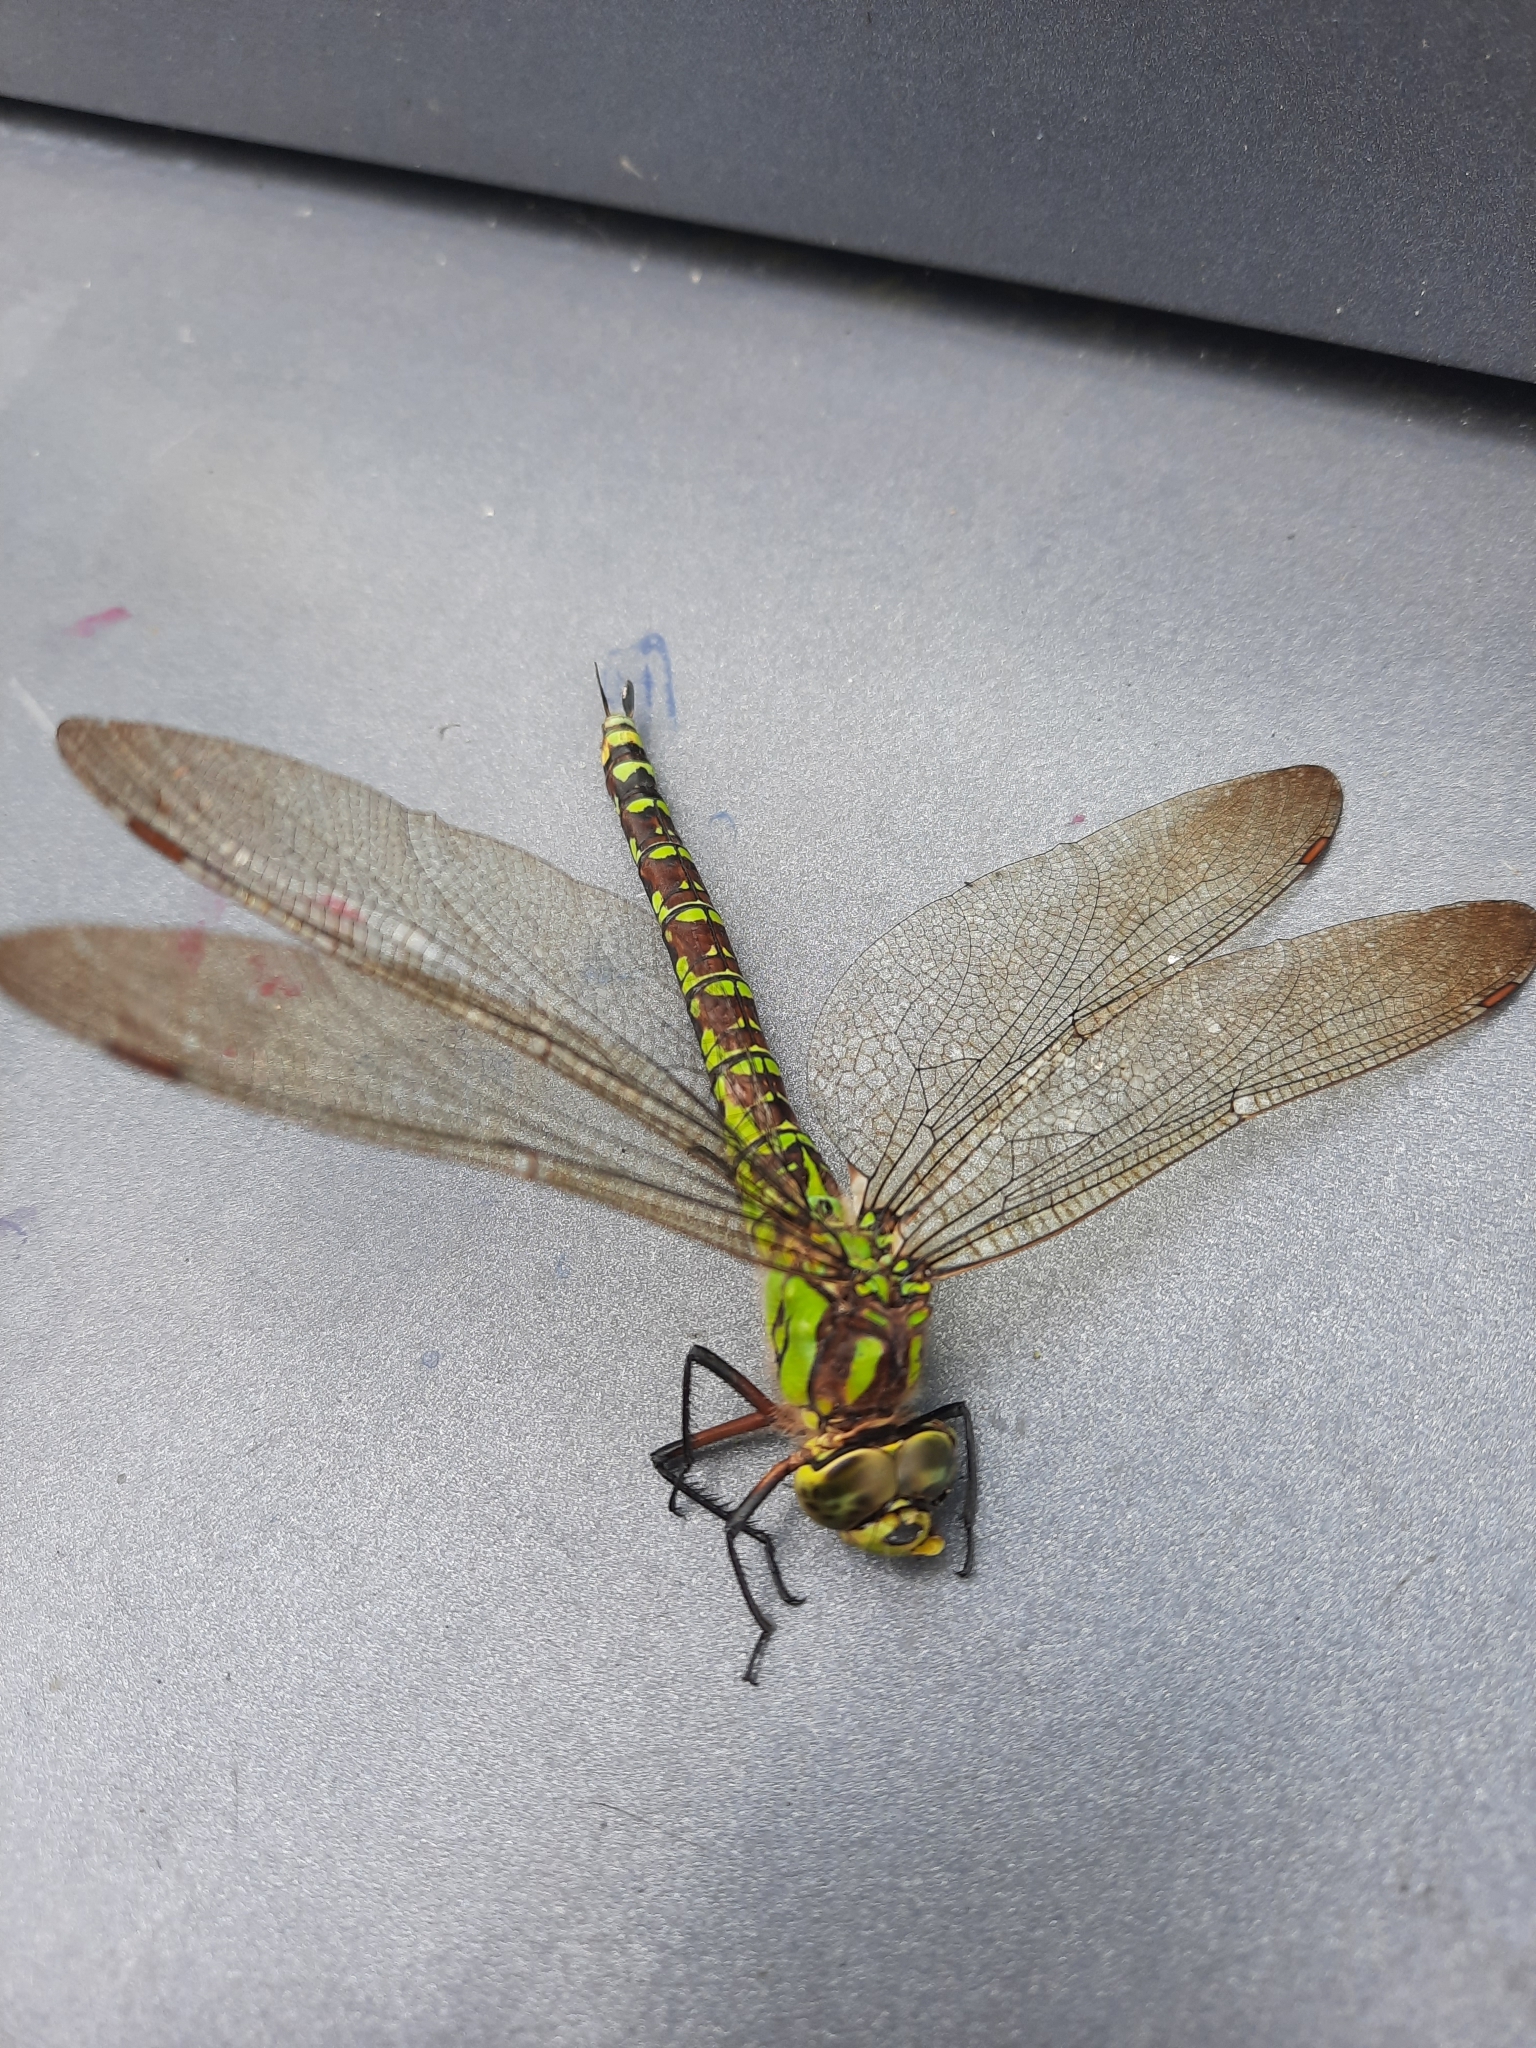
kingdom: Animalia
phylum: Arthropoda
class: Insecta
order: Odonata
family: Aeshnidae
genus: Aeshna
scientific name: Aeshna cyanea
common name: Southern hawker
